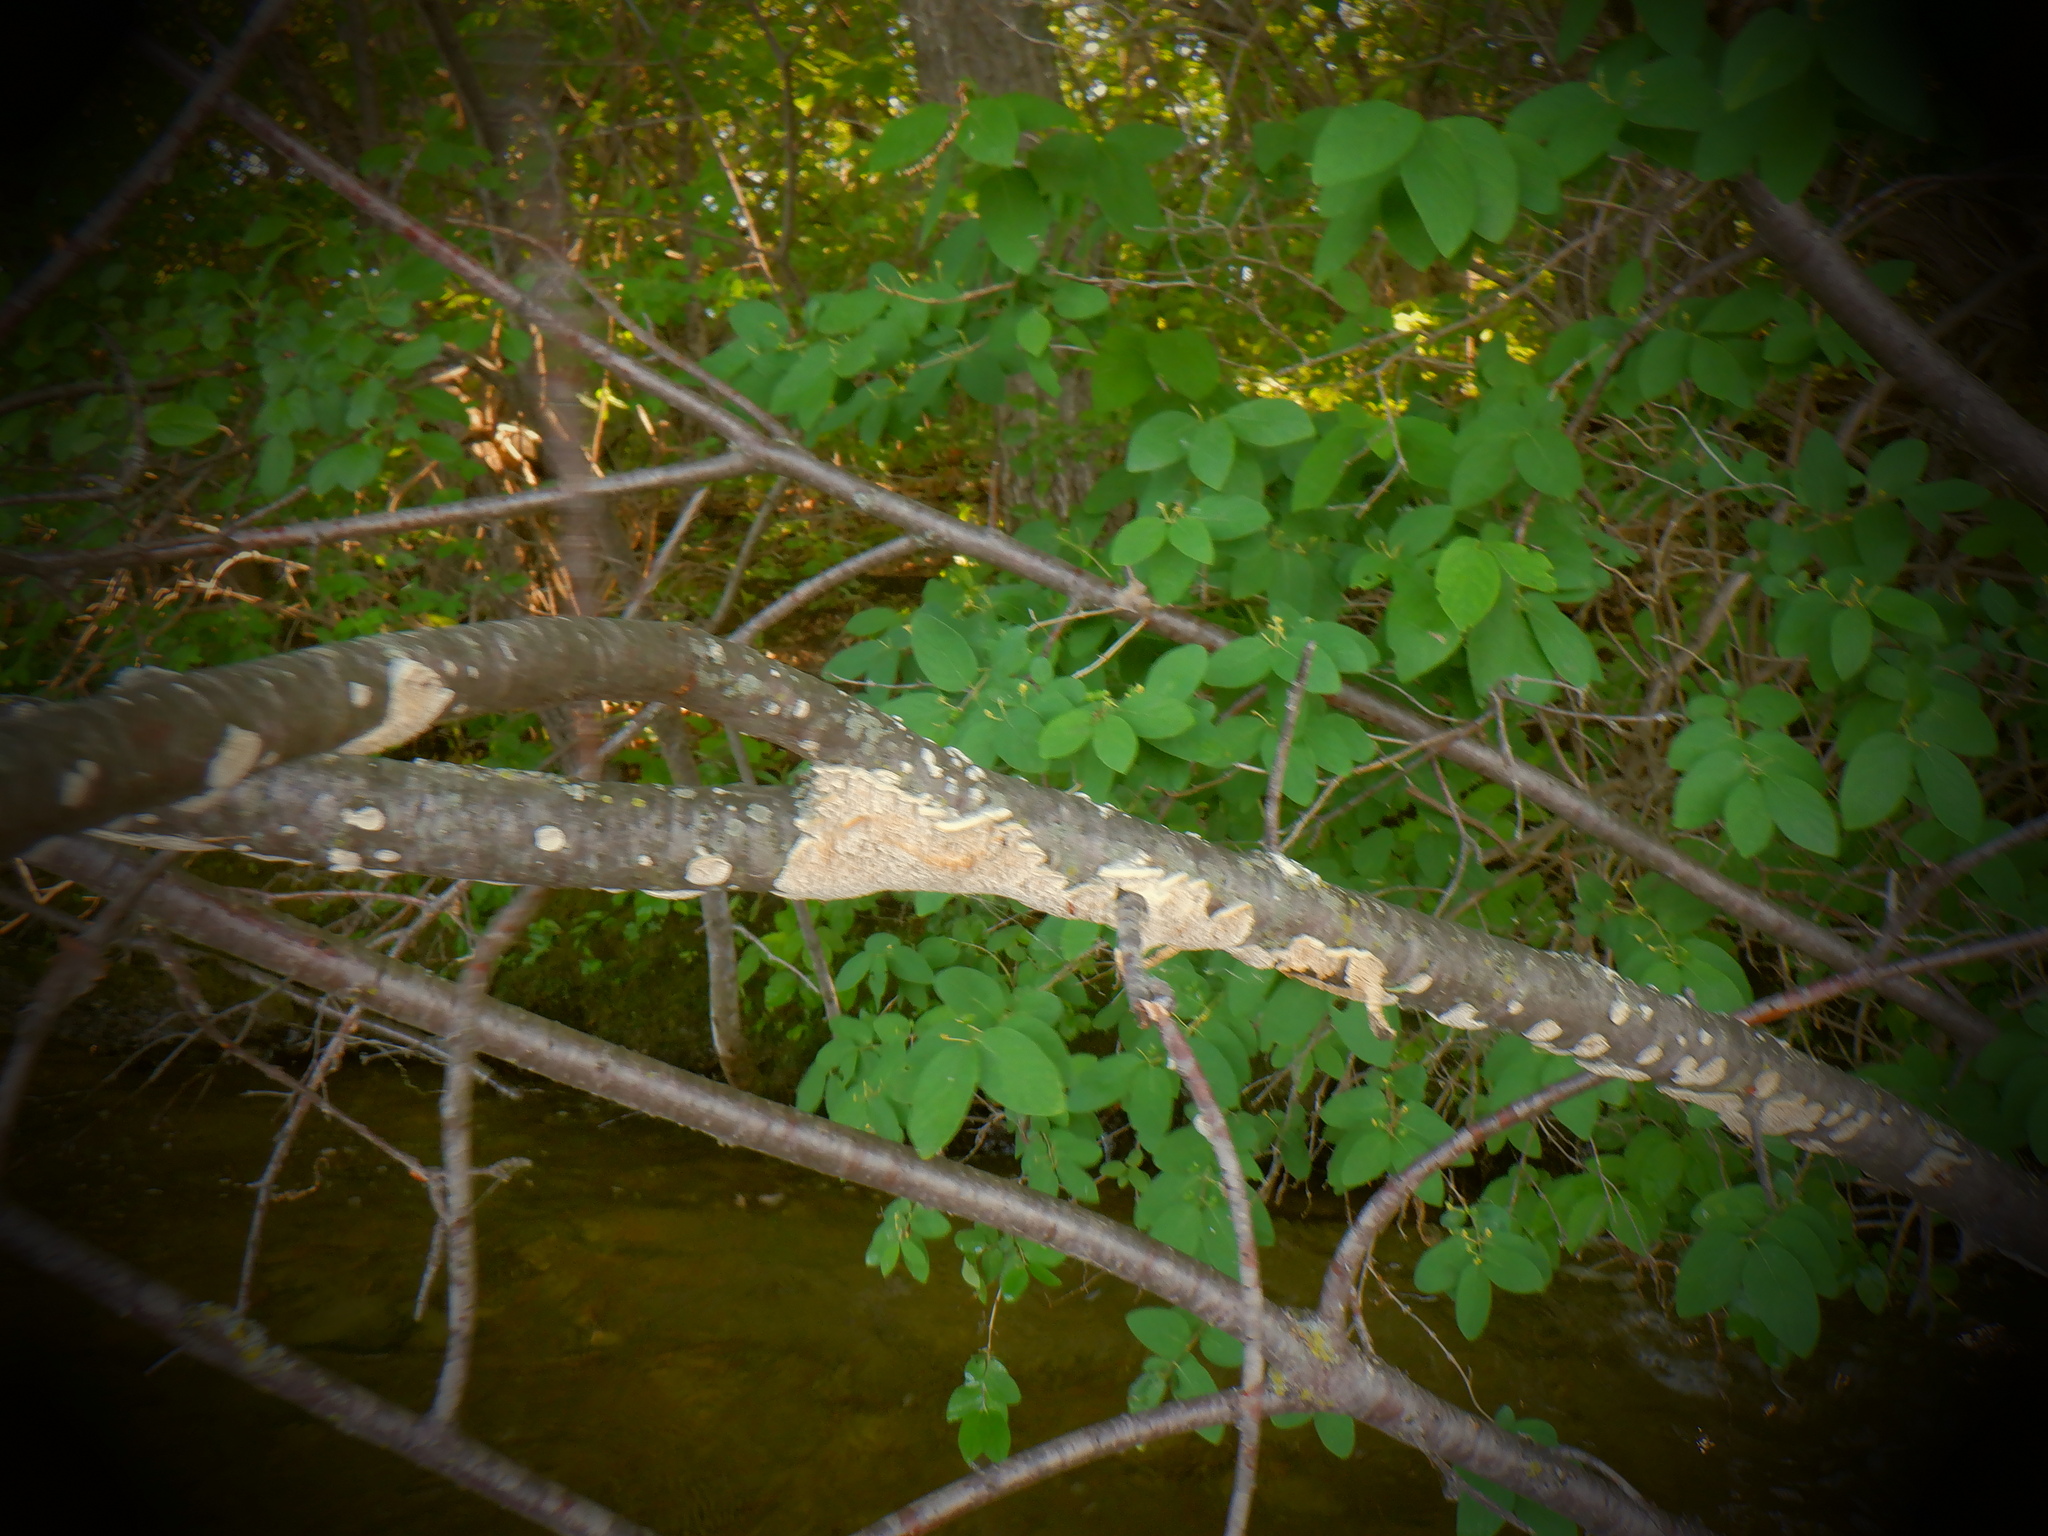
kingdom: Fungi
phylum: Basidiomycota
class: Agaricomycetes
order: Polyporales
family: Irpicaceae
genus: Irpex
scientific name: Irpex lacteus
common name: Milk-white toothed polypore
